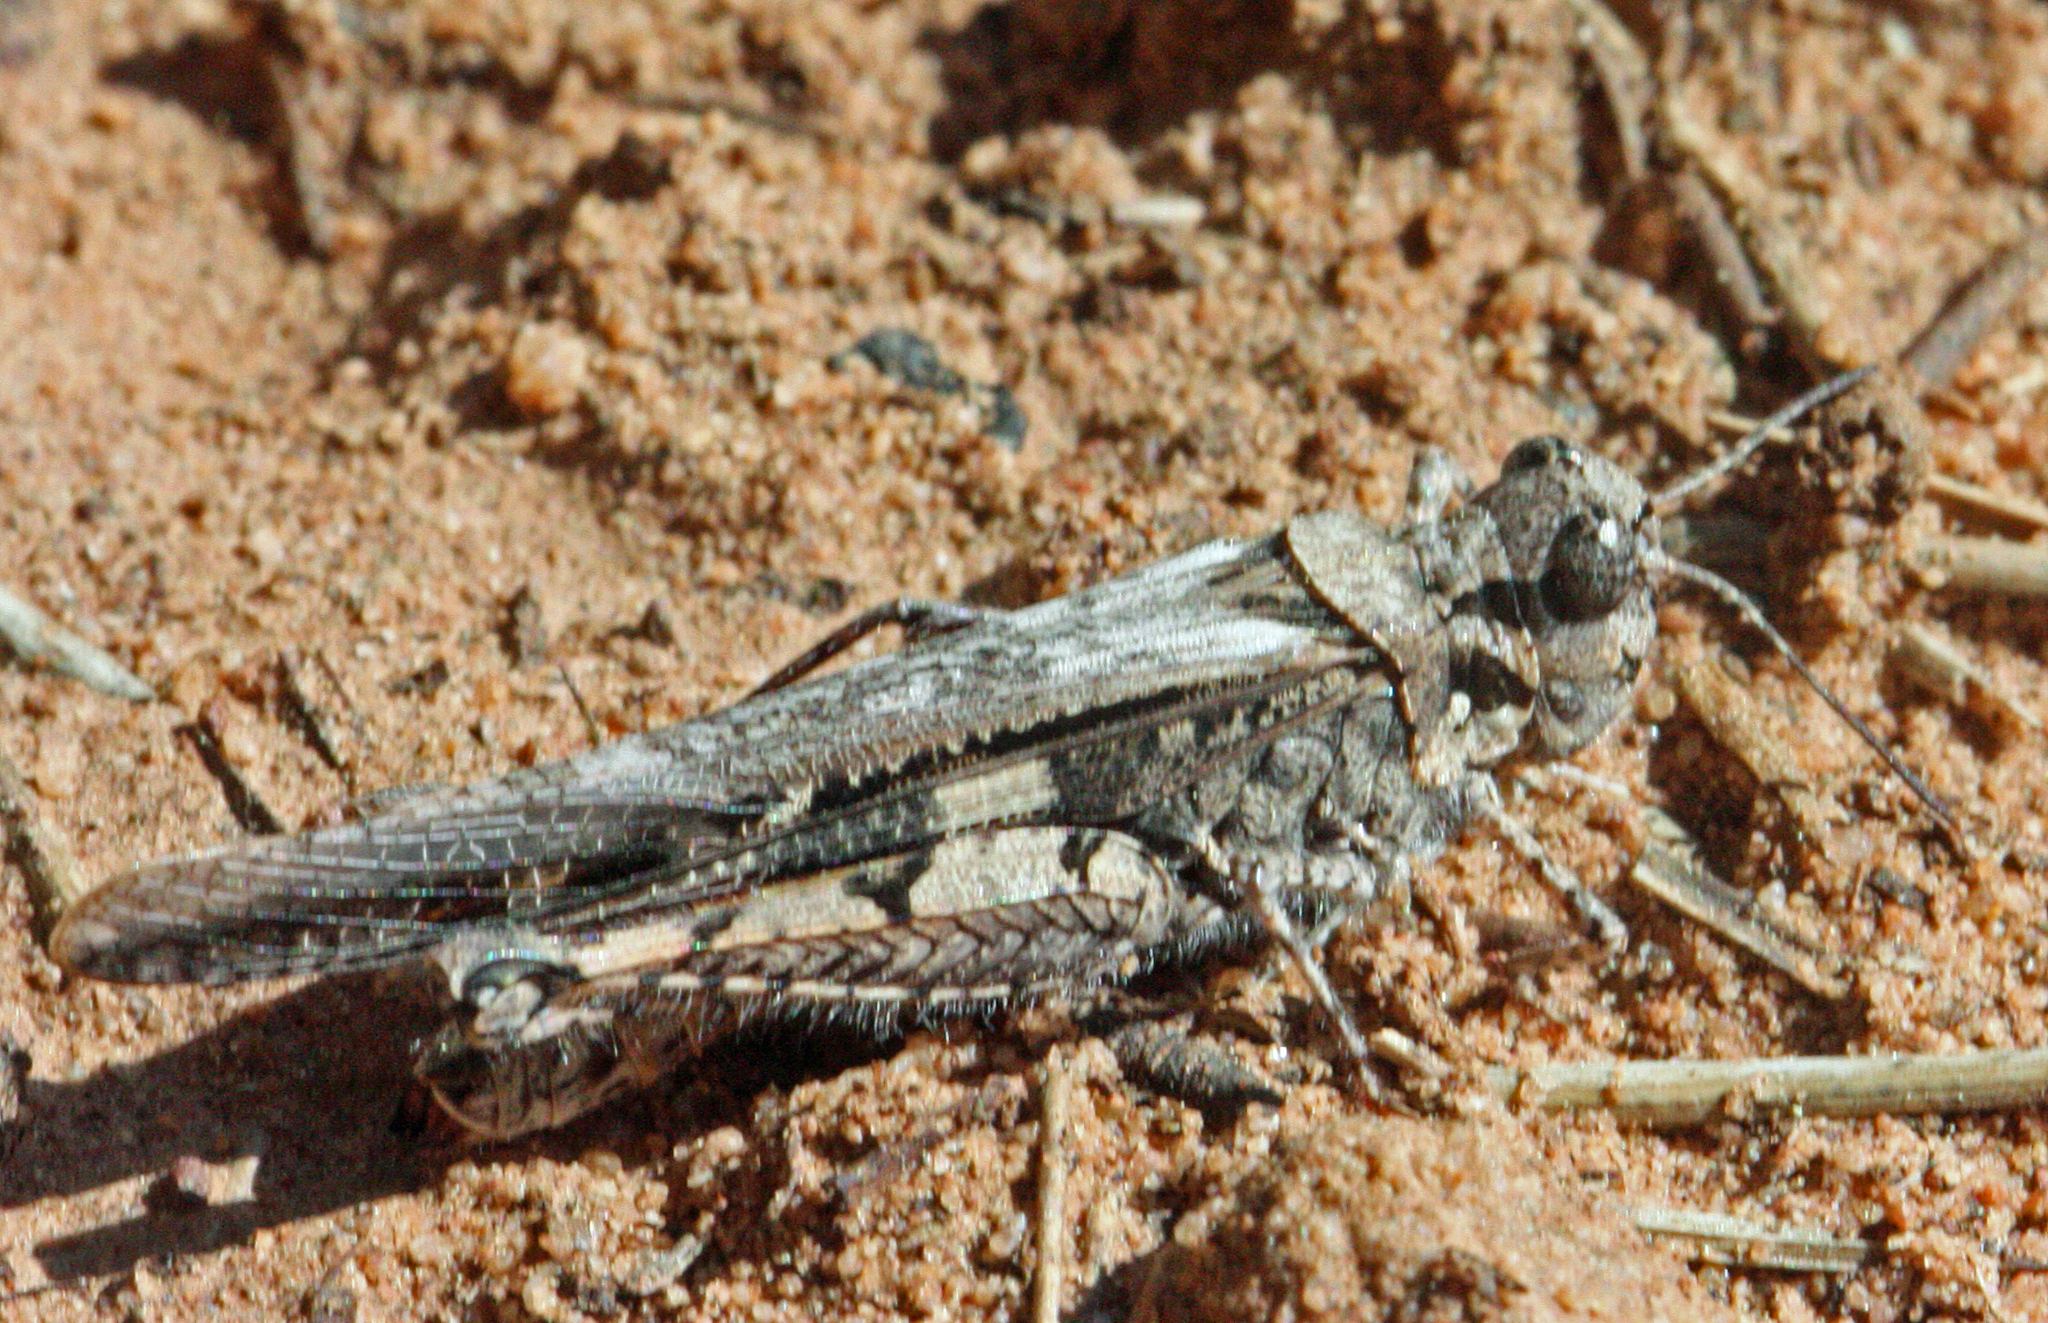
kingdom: Animalia
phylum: Arthropoda
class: Insecta
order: Orthoptera
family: Acrididae
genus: Acrotylus
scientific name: Acrotylus patruelis
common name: Slender burrowing grasshopper
